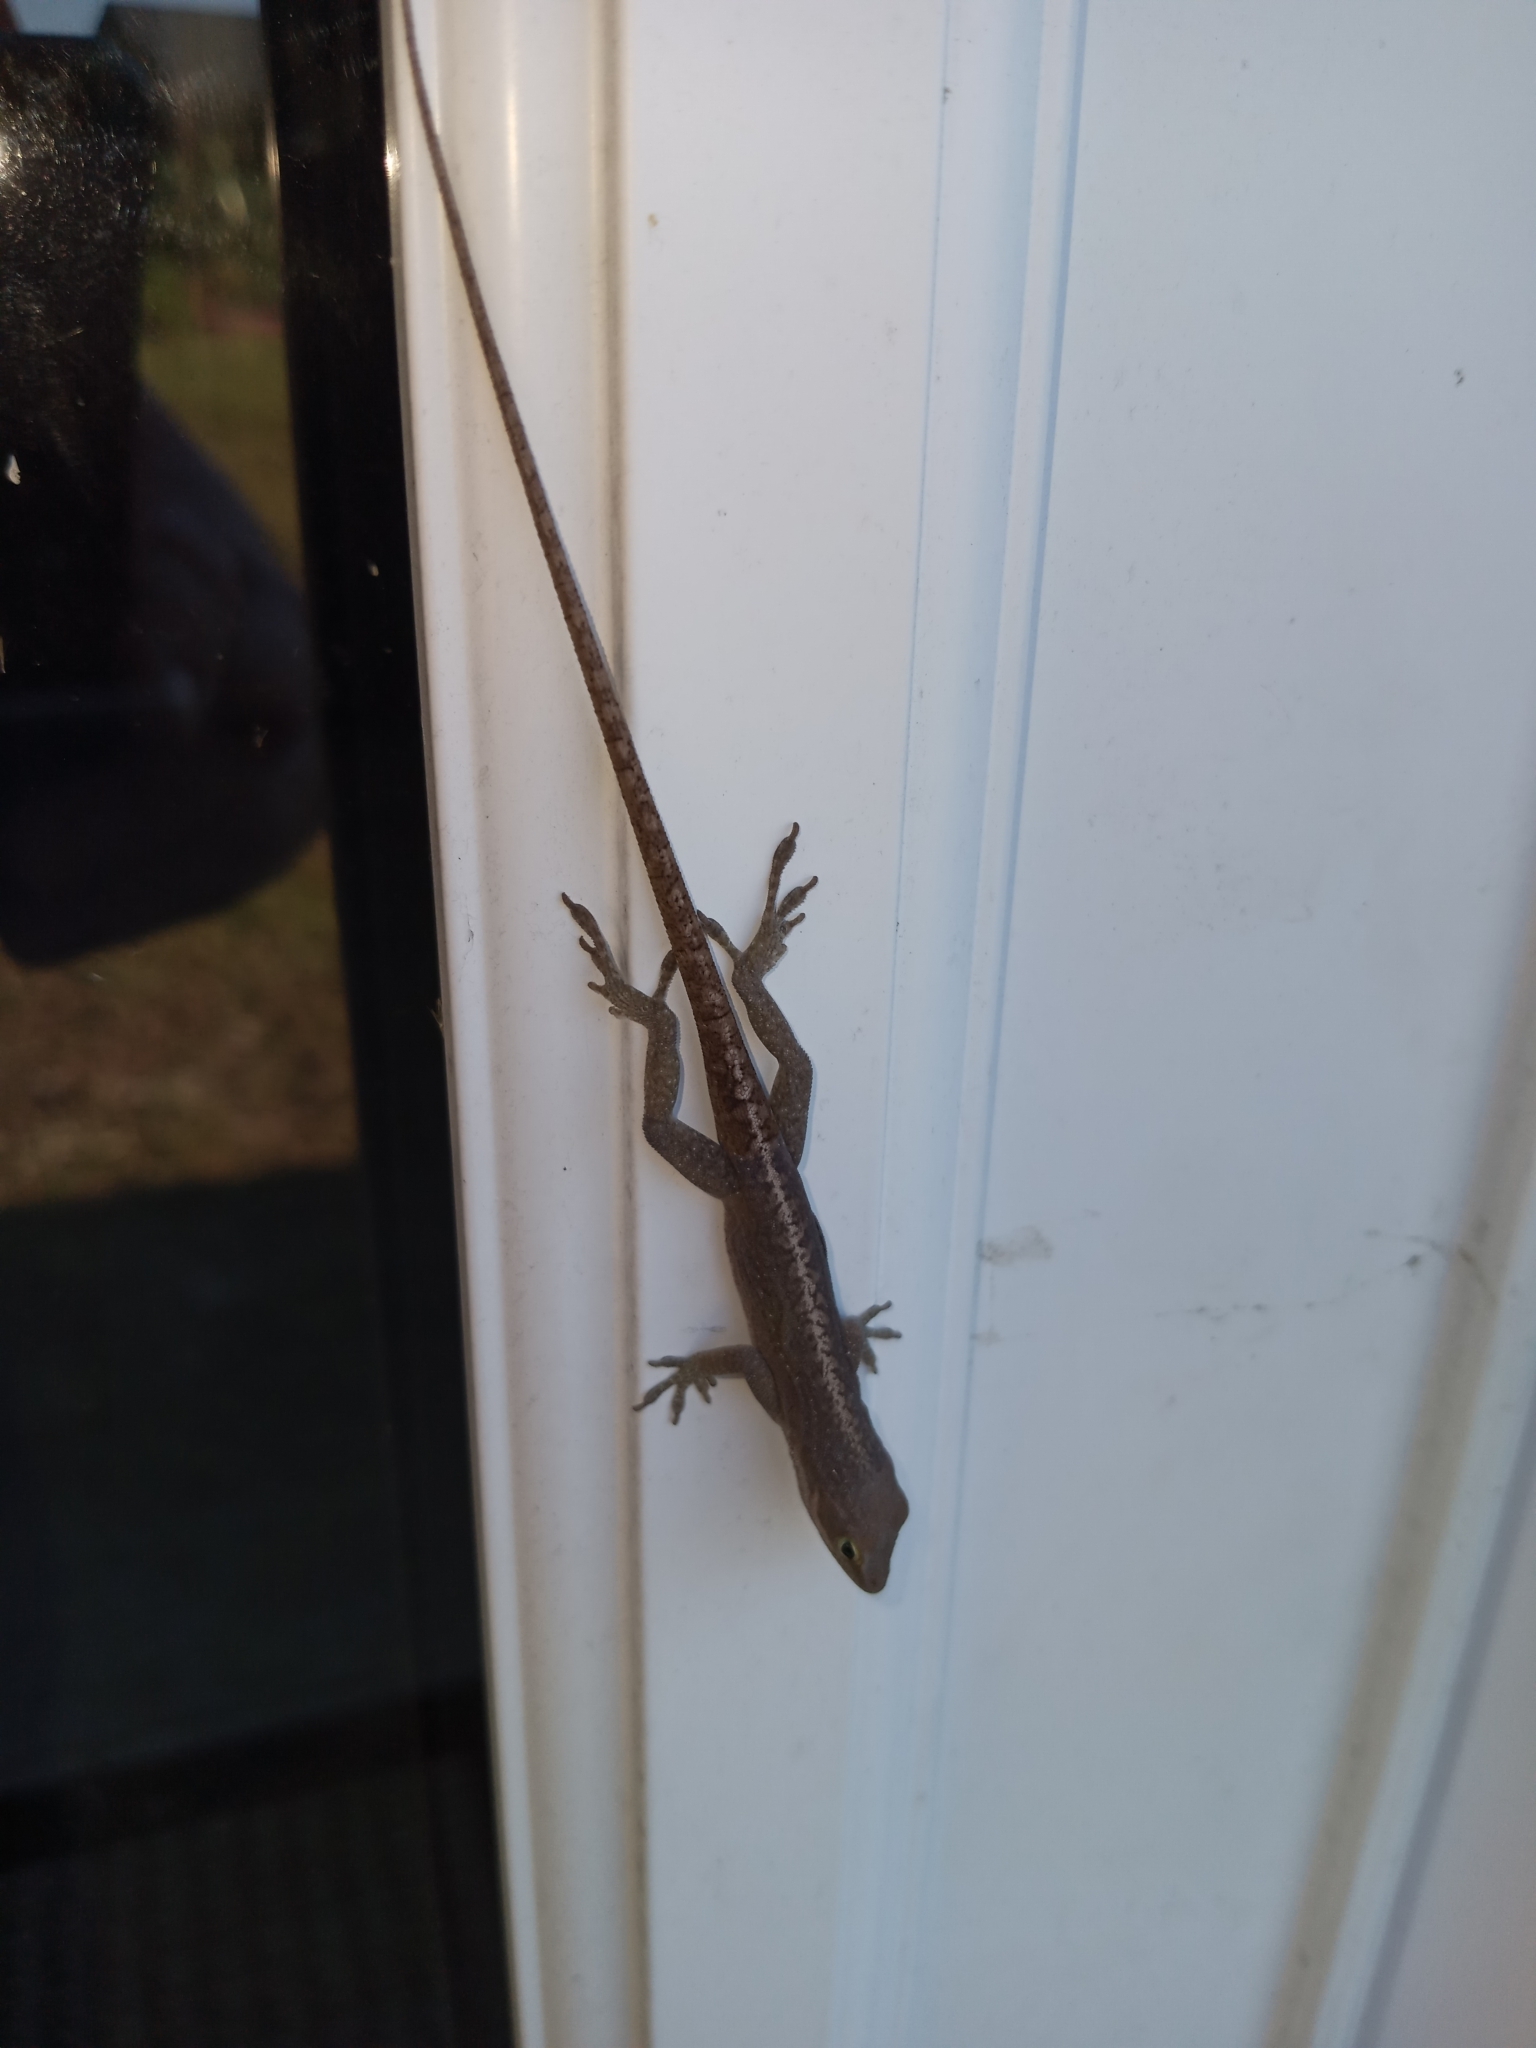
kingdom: Animalia
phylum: Chordata
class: Squamata
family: Dactyloidae
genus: Anolis
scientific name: Anolis carolinensis
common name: Green anole
